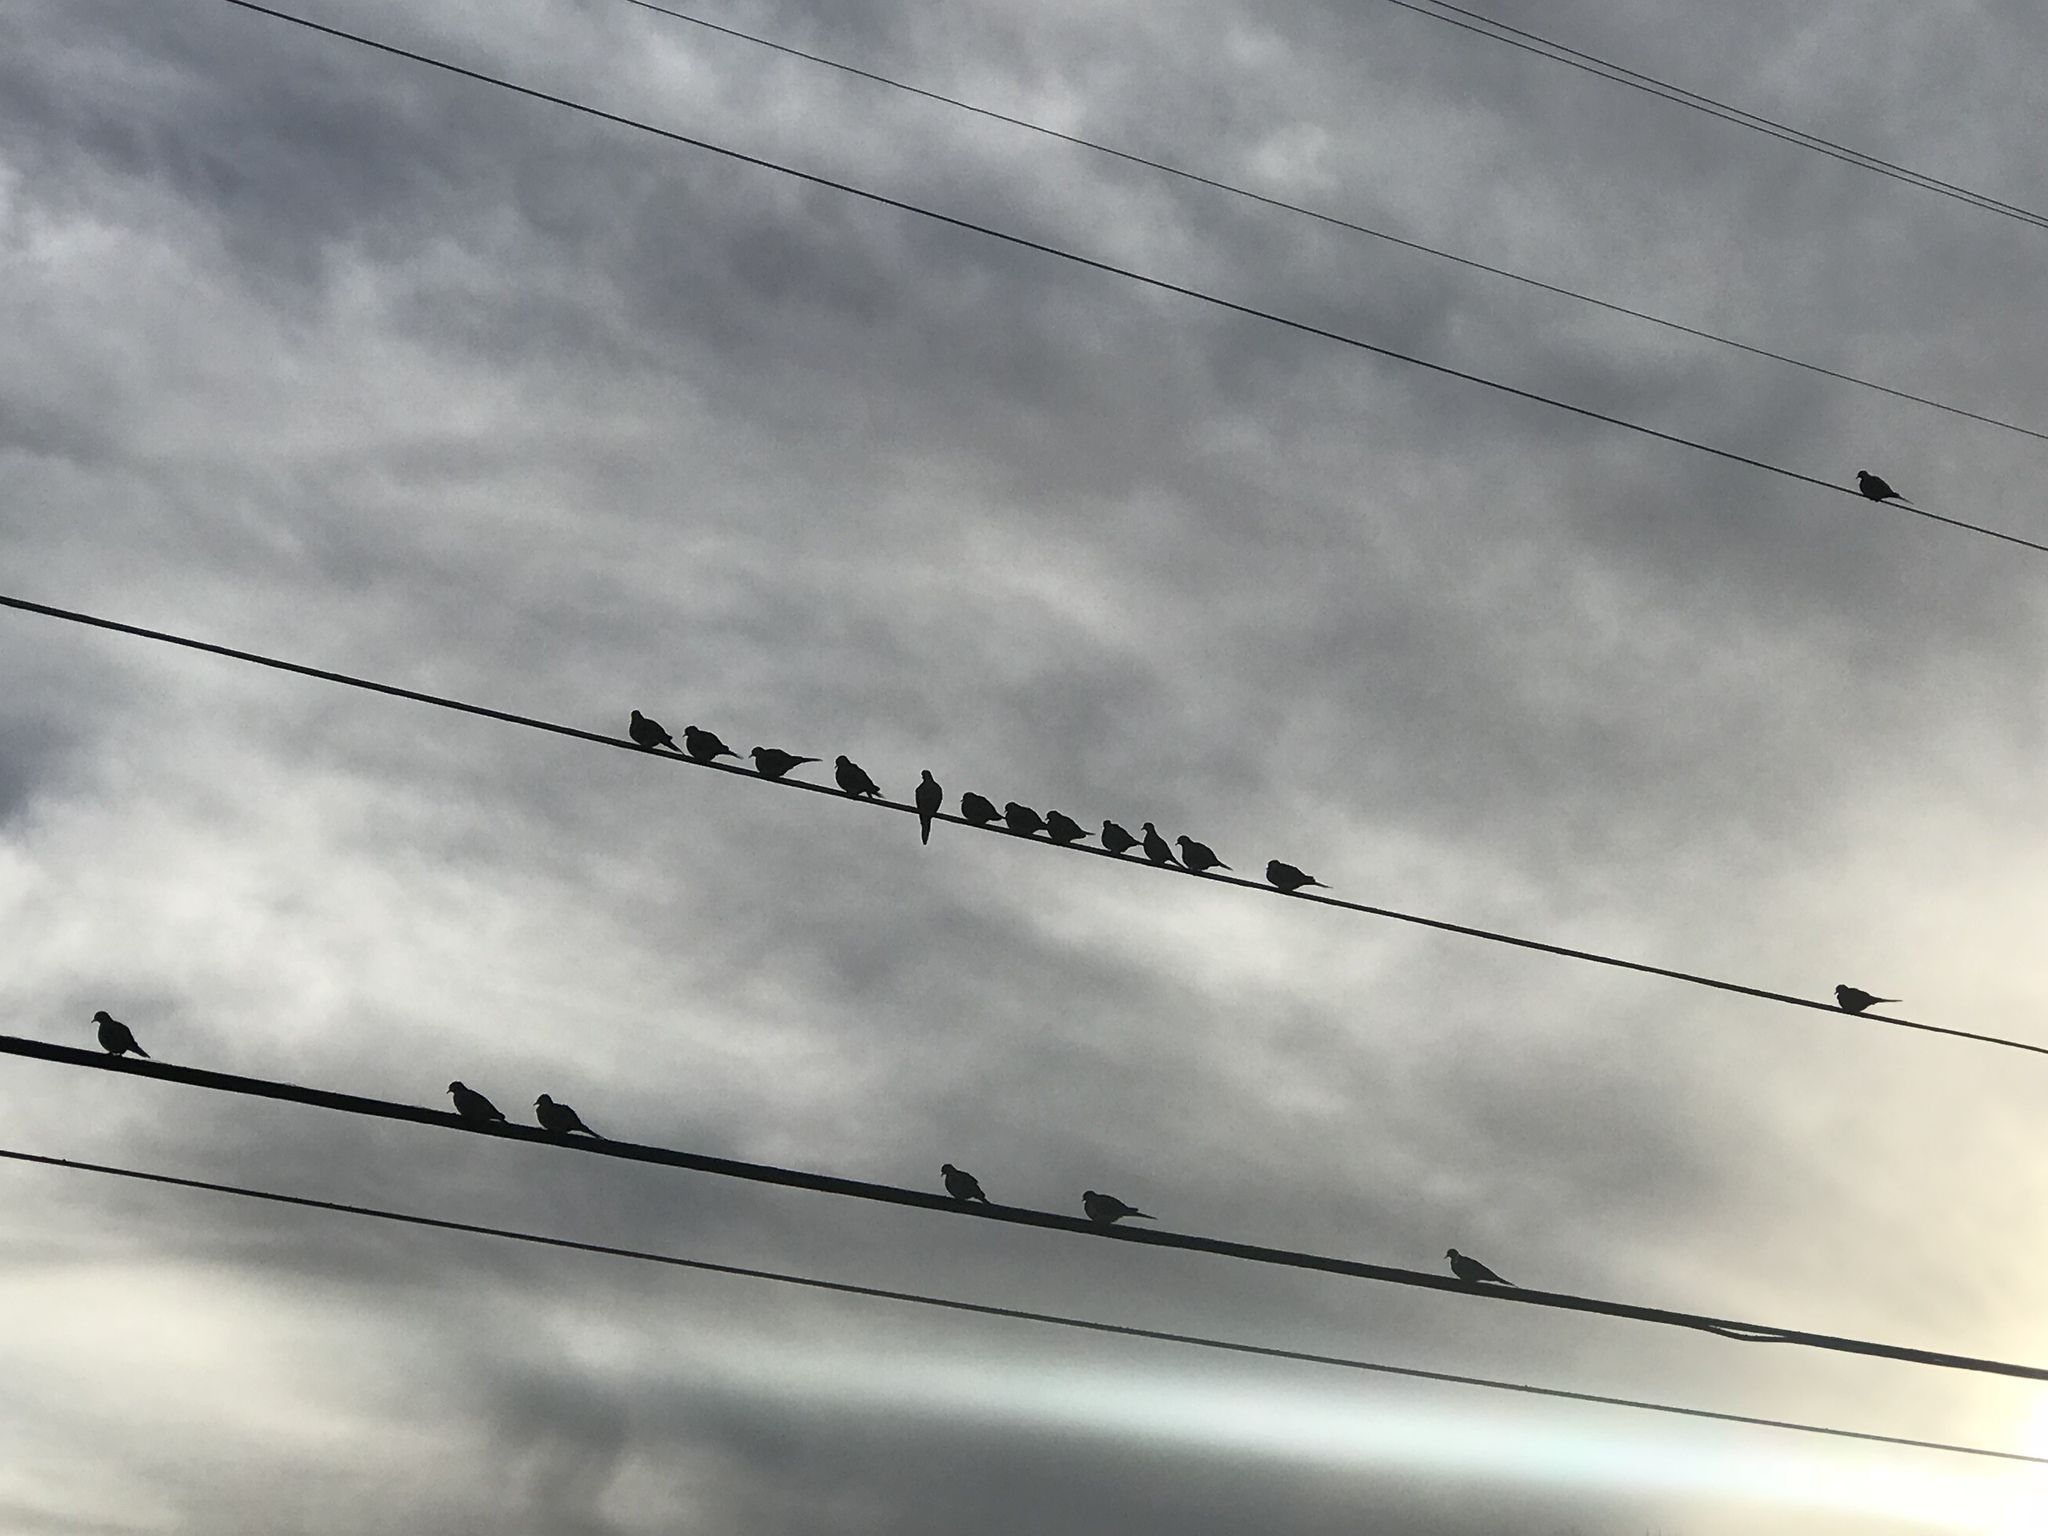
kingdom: Animalia
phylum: Chordata
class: Aves
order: Columbiformes
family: Columbidae
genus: Zenaida
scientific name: Zenaida macroura
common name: Mourning dove
